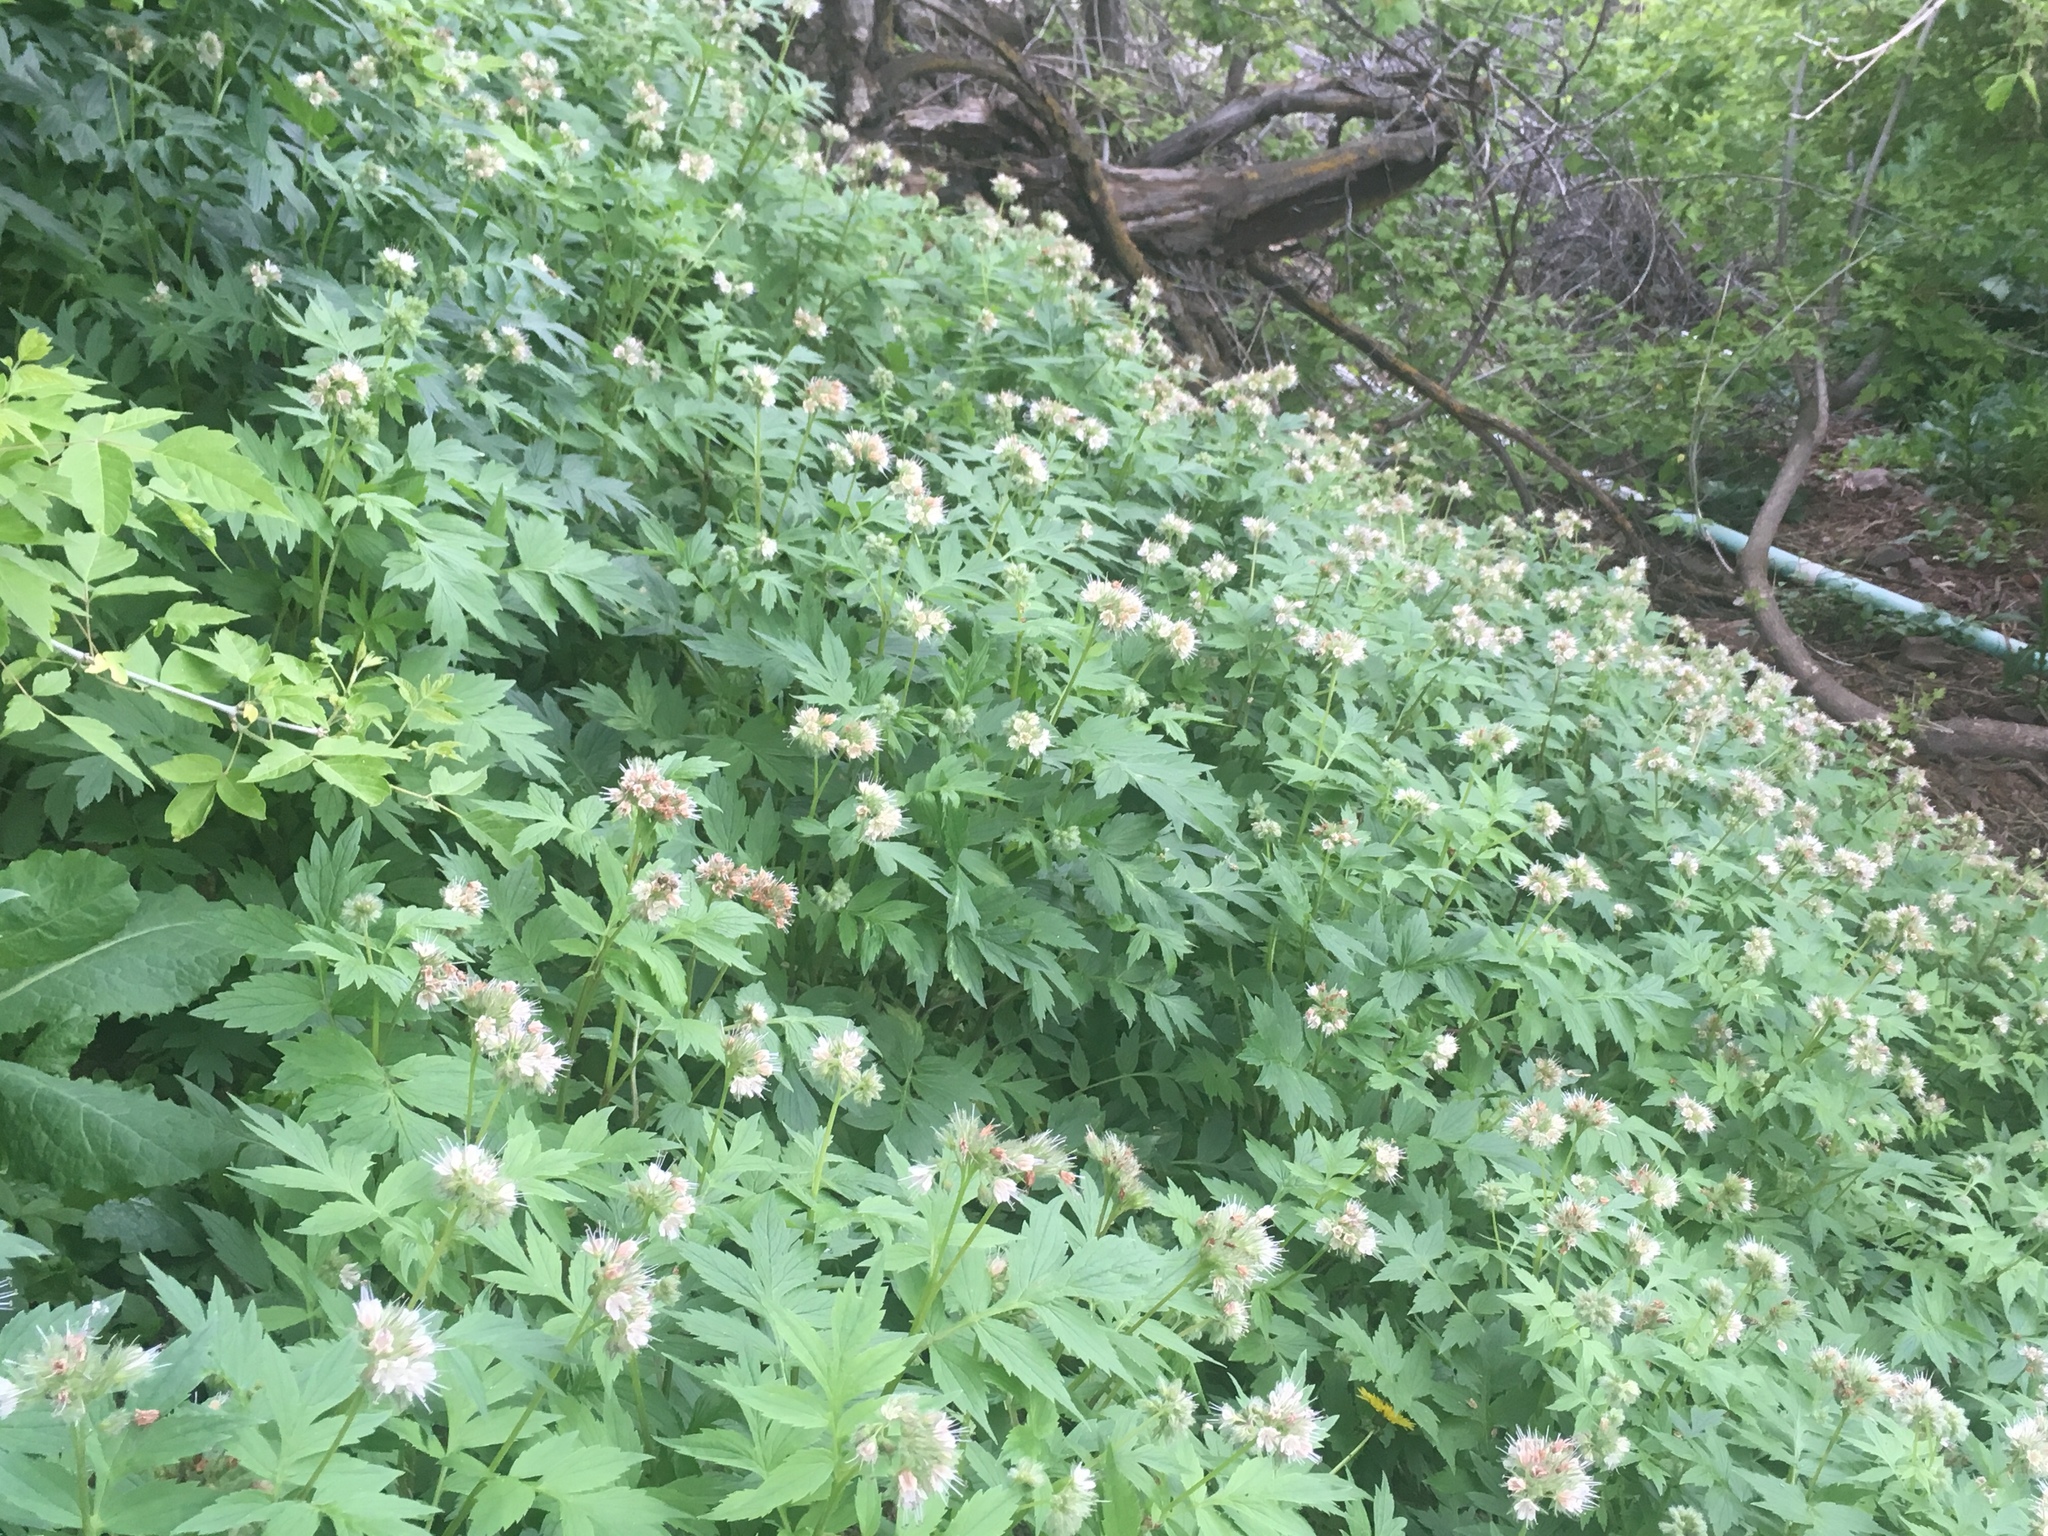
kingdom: Plantae
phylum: Tracheophyta
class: Magnoliopsida
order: Boraginales
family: Hydrophyllaceae
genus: Hydrophyllum
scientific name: Hydrophyllum fendleri
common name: Fendler's waterleaf
